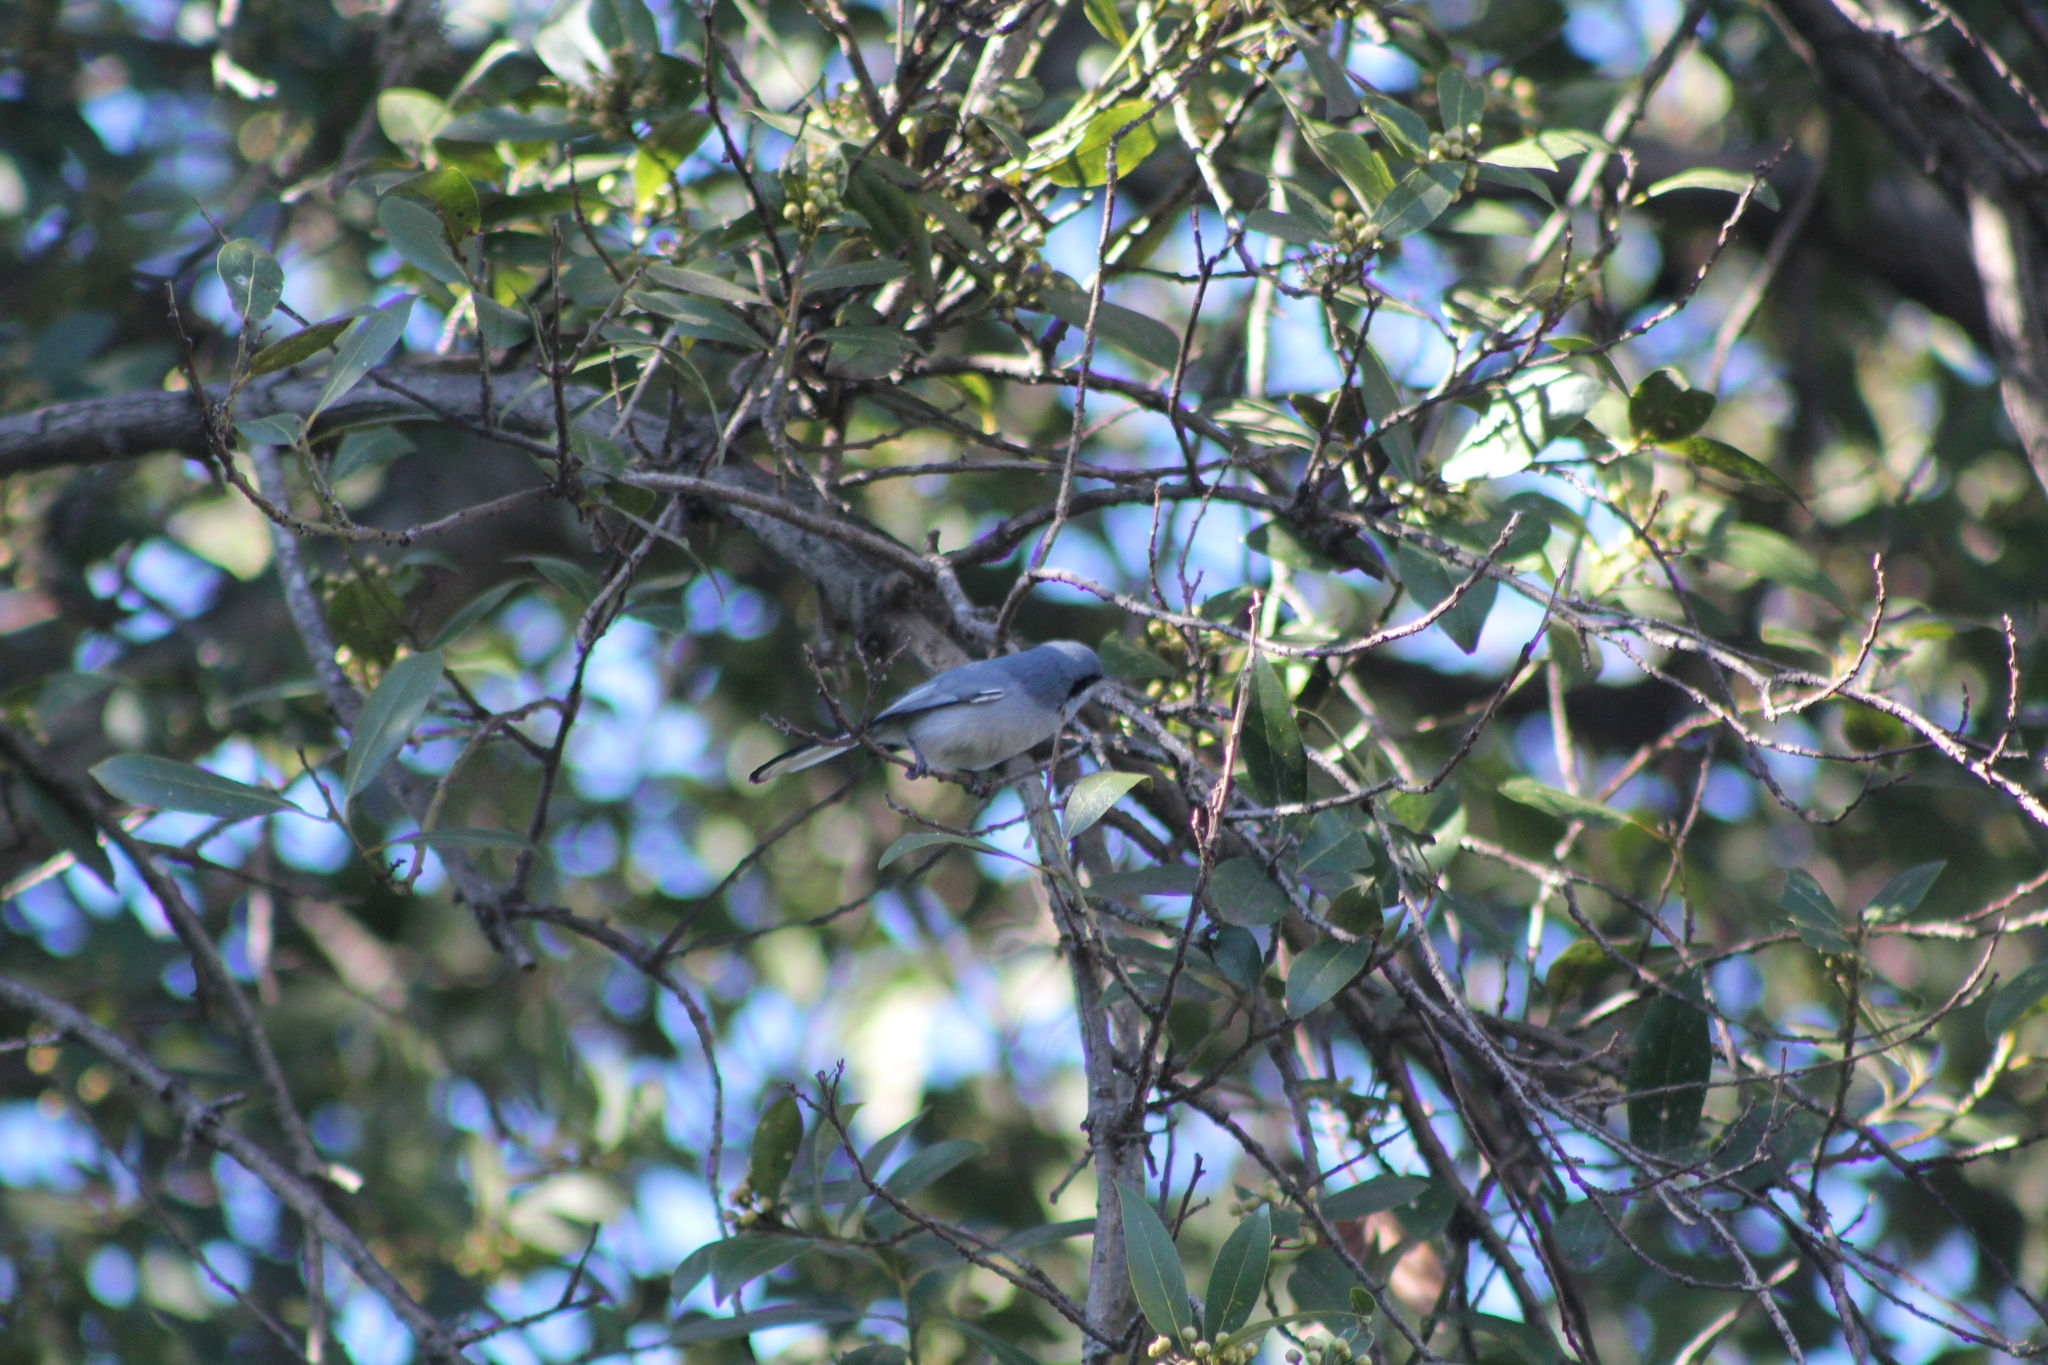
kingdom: Animalia
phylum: Chordata
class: Aves
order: Passeriformes
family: Polioptilidae
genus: Polioptila
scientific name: Polioptila dumicola
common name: Masked gnatcatcher
